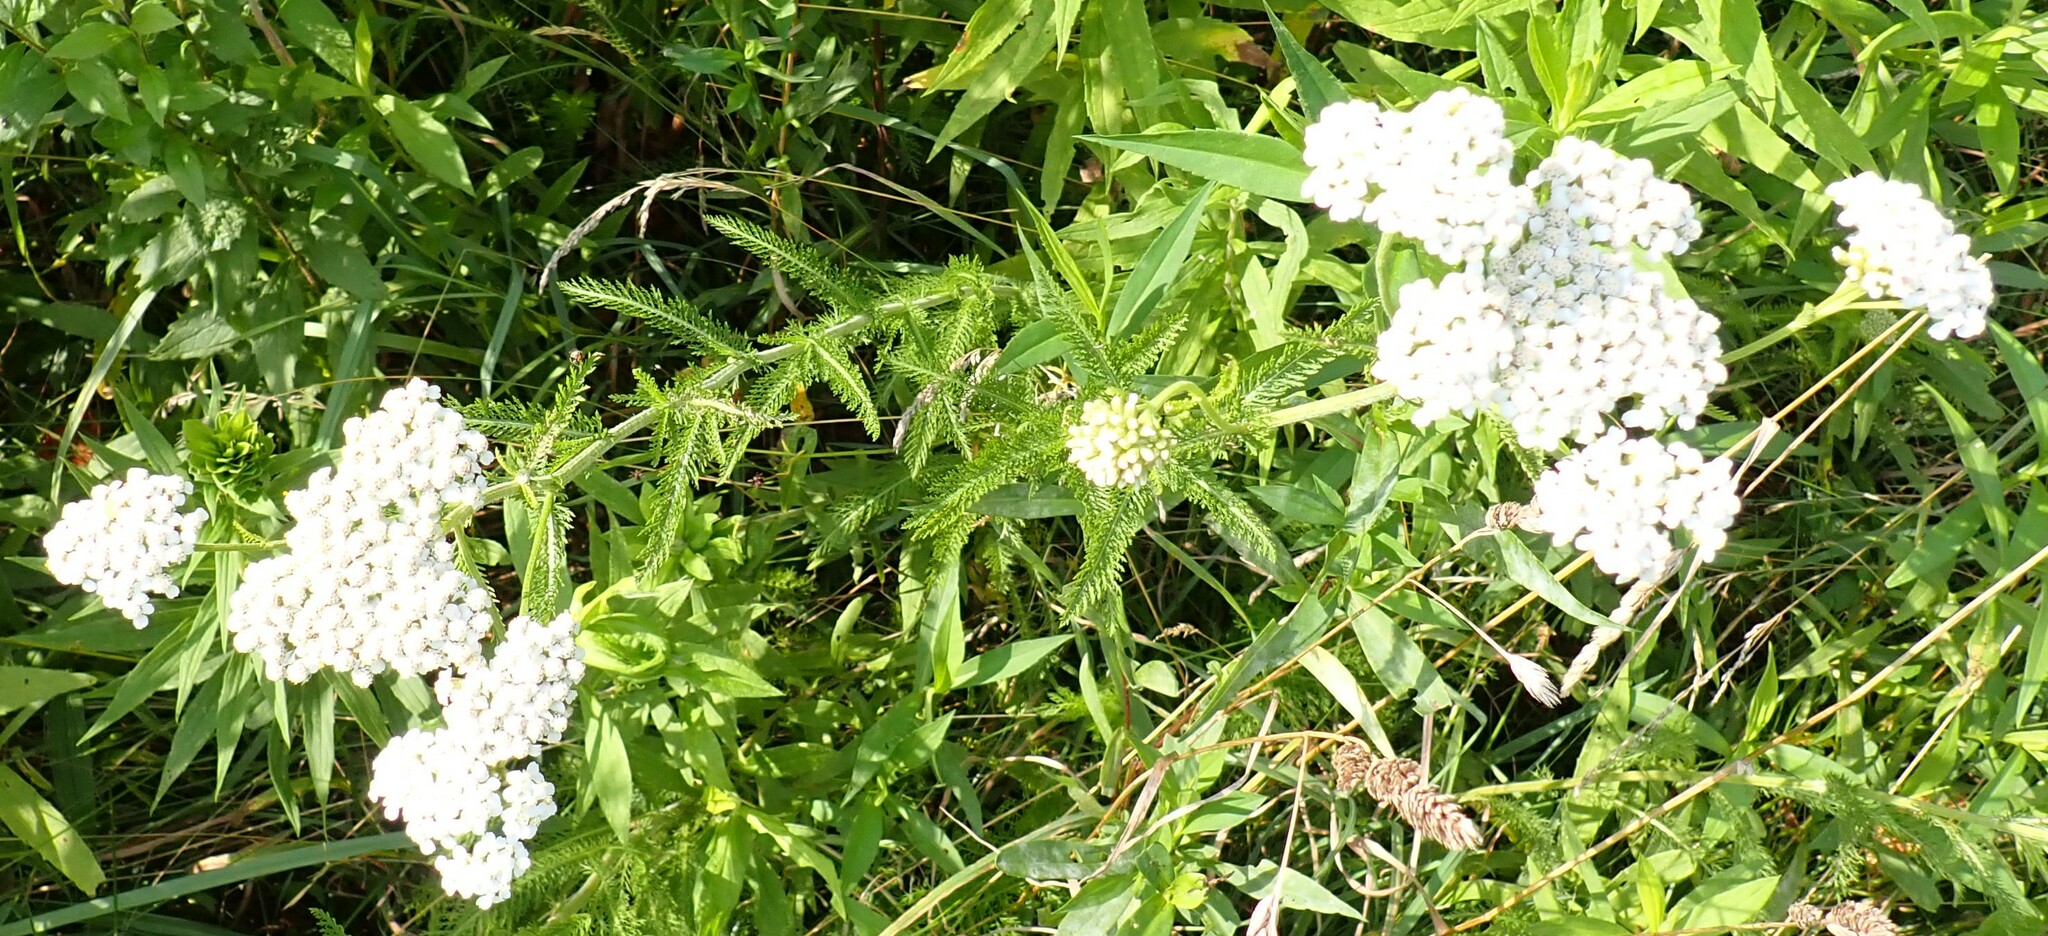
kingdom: Plantae
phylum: Tracheophyta
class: Magnoliopsida
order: Asterales
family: Asteraceae
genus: Achillea
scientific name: Achillea millefolium
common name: Yarrow
